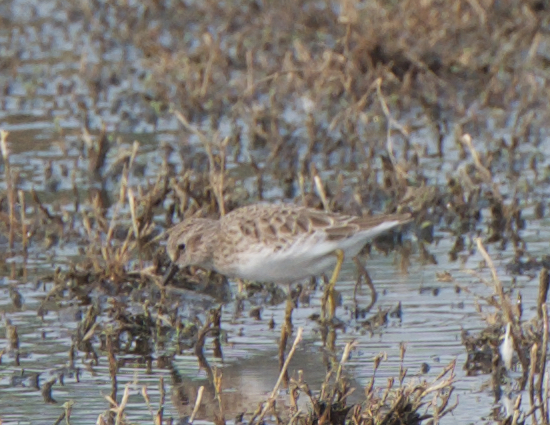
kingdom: Animalia
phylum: Chordata
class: Aves
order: Charadriiformes
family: Scolopacidae
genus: Calidris
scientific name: Calidris minutilla
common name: Least sandpiper
